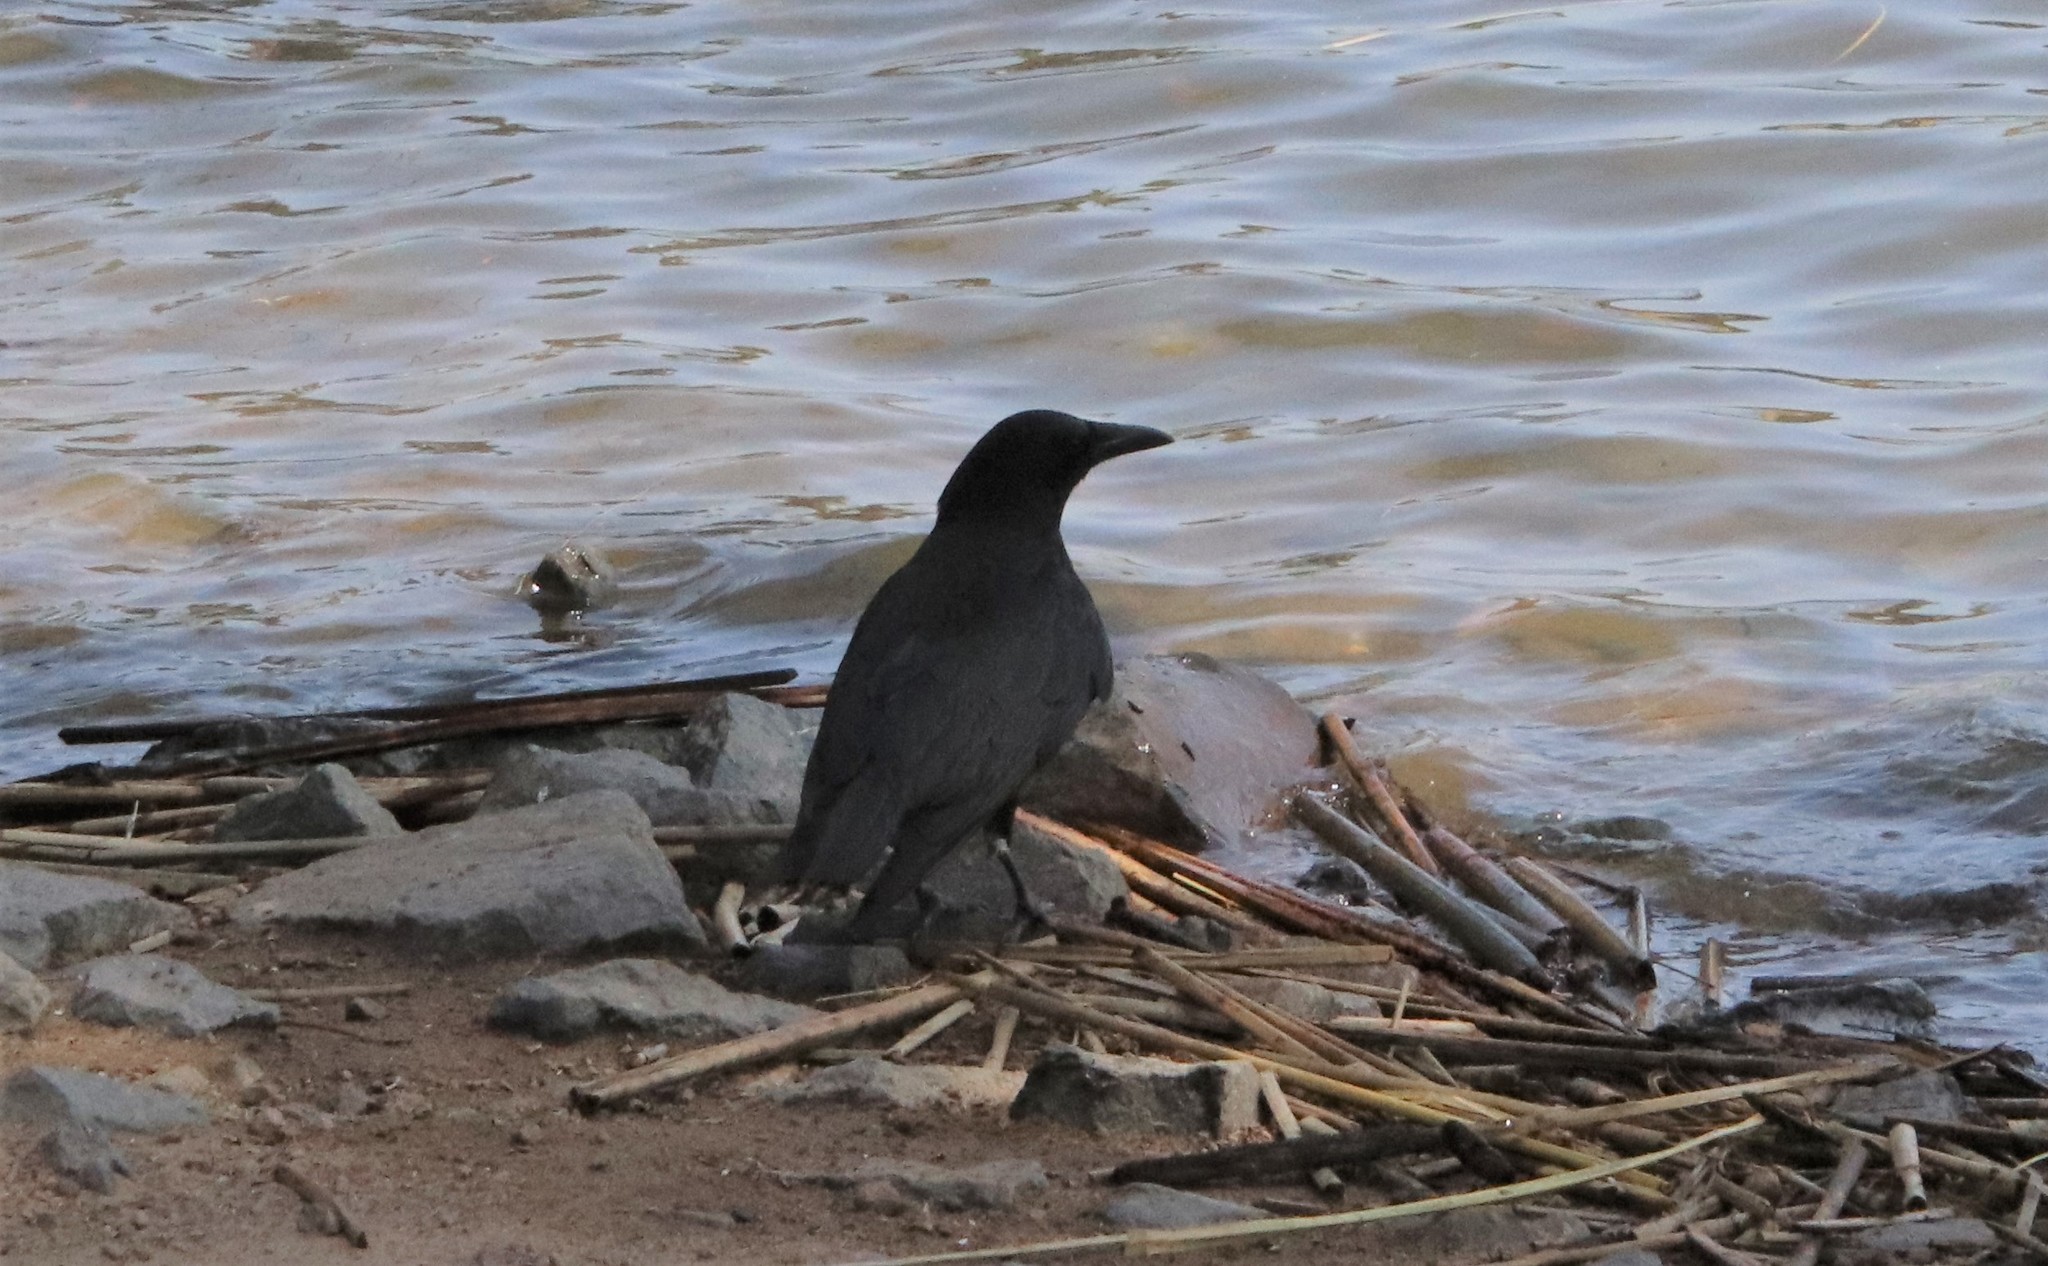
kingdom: Animalia
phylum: Chordata
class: Aves
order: Passeriformes
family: Corvidae
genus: Corvus
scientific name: Corvus brachyrhynchos
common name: American crow
